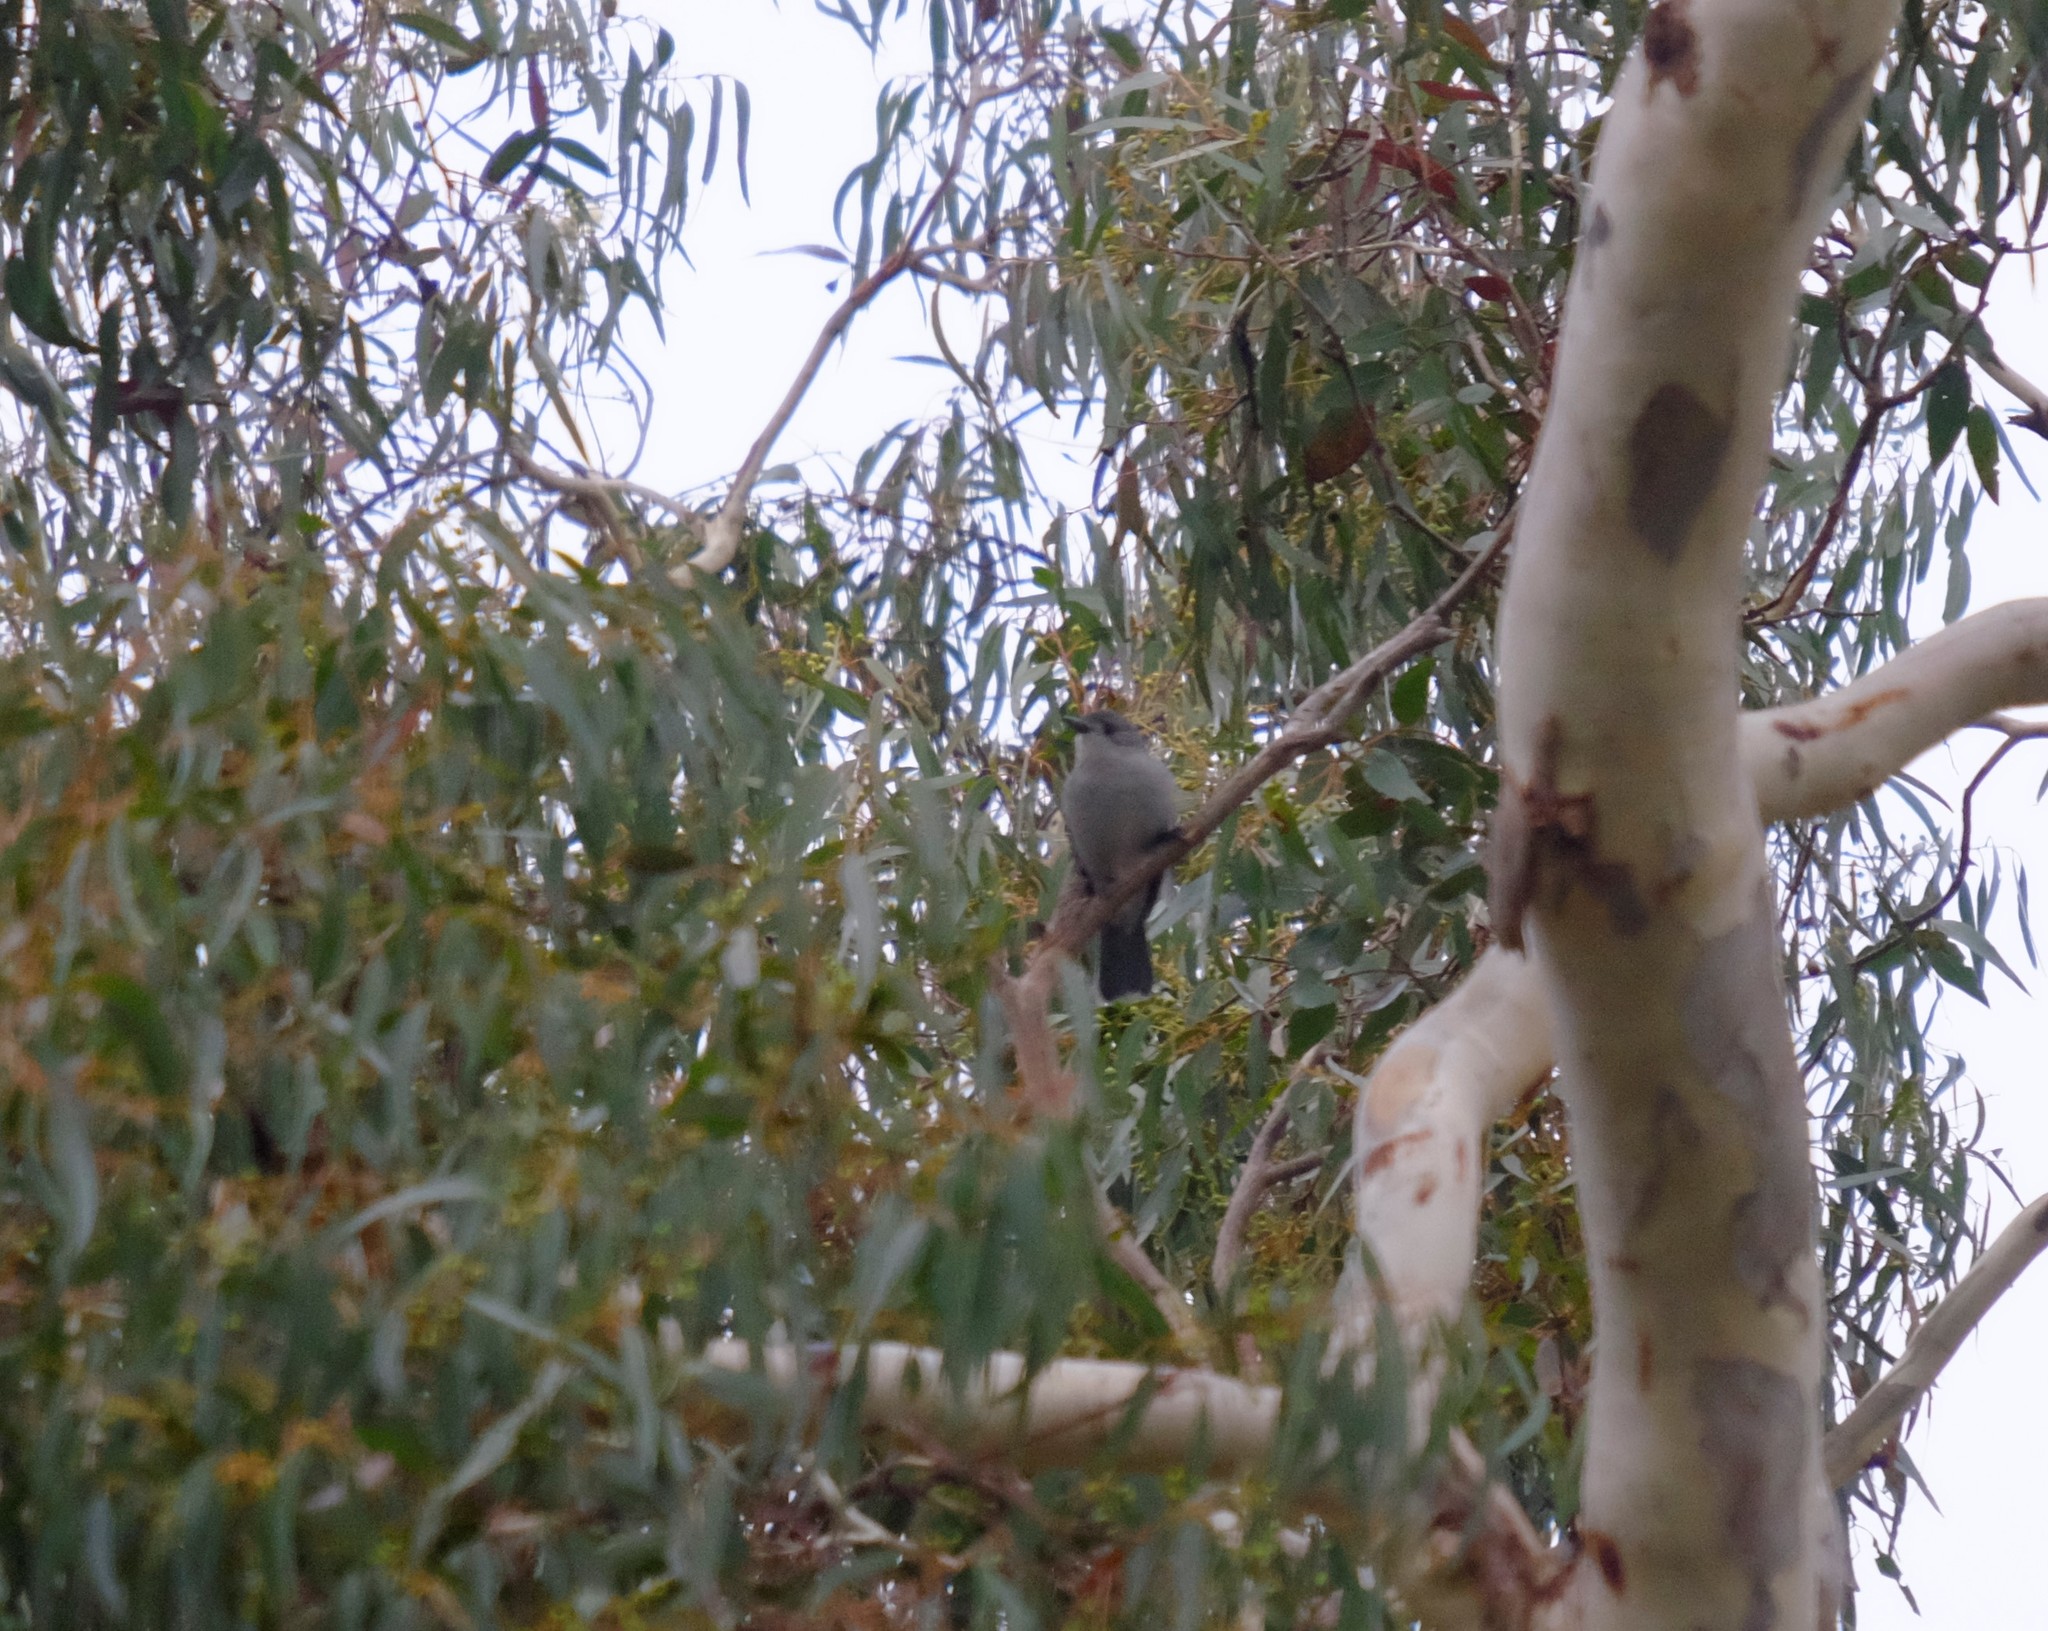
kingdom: Animalia
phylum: Chordata
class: Aves
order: Passeriformes
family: Pachycephalidae
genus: Colluricincla
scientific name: Colluricincla harmonica
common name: Grey shrikethrush
